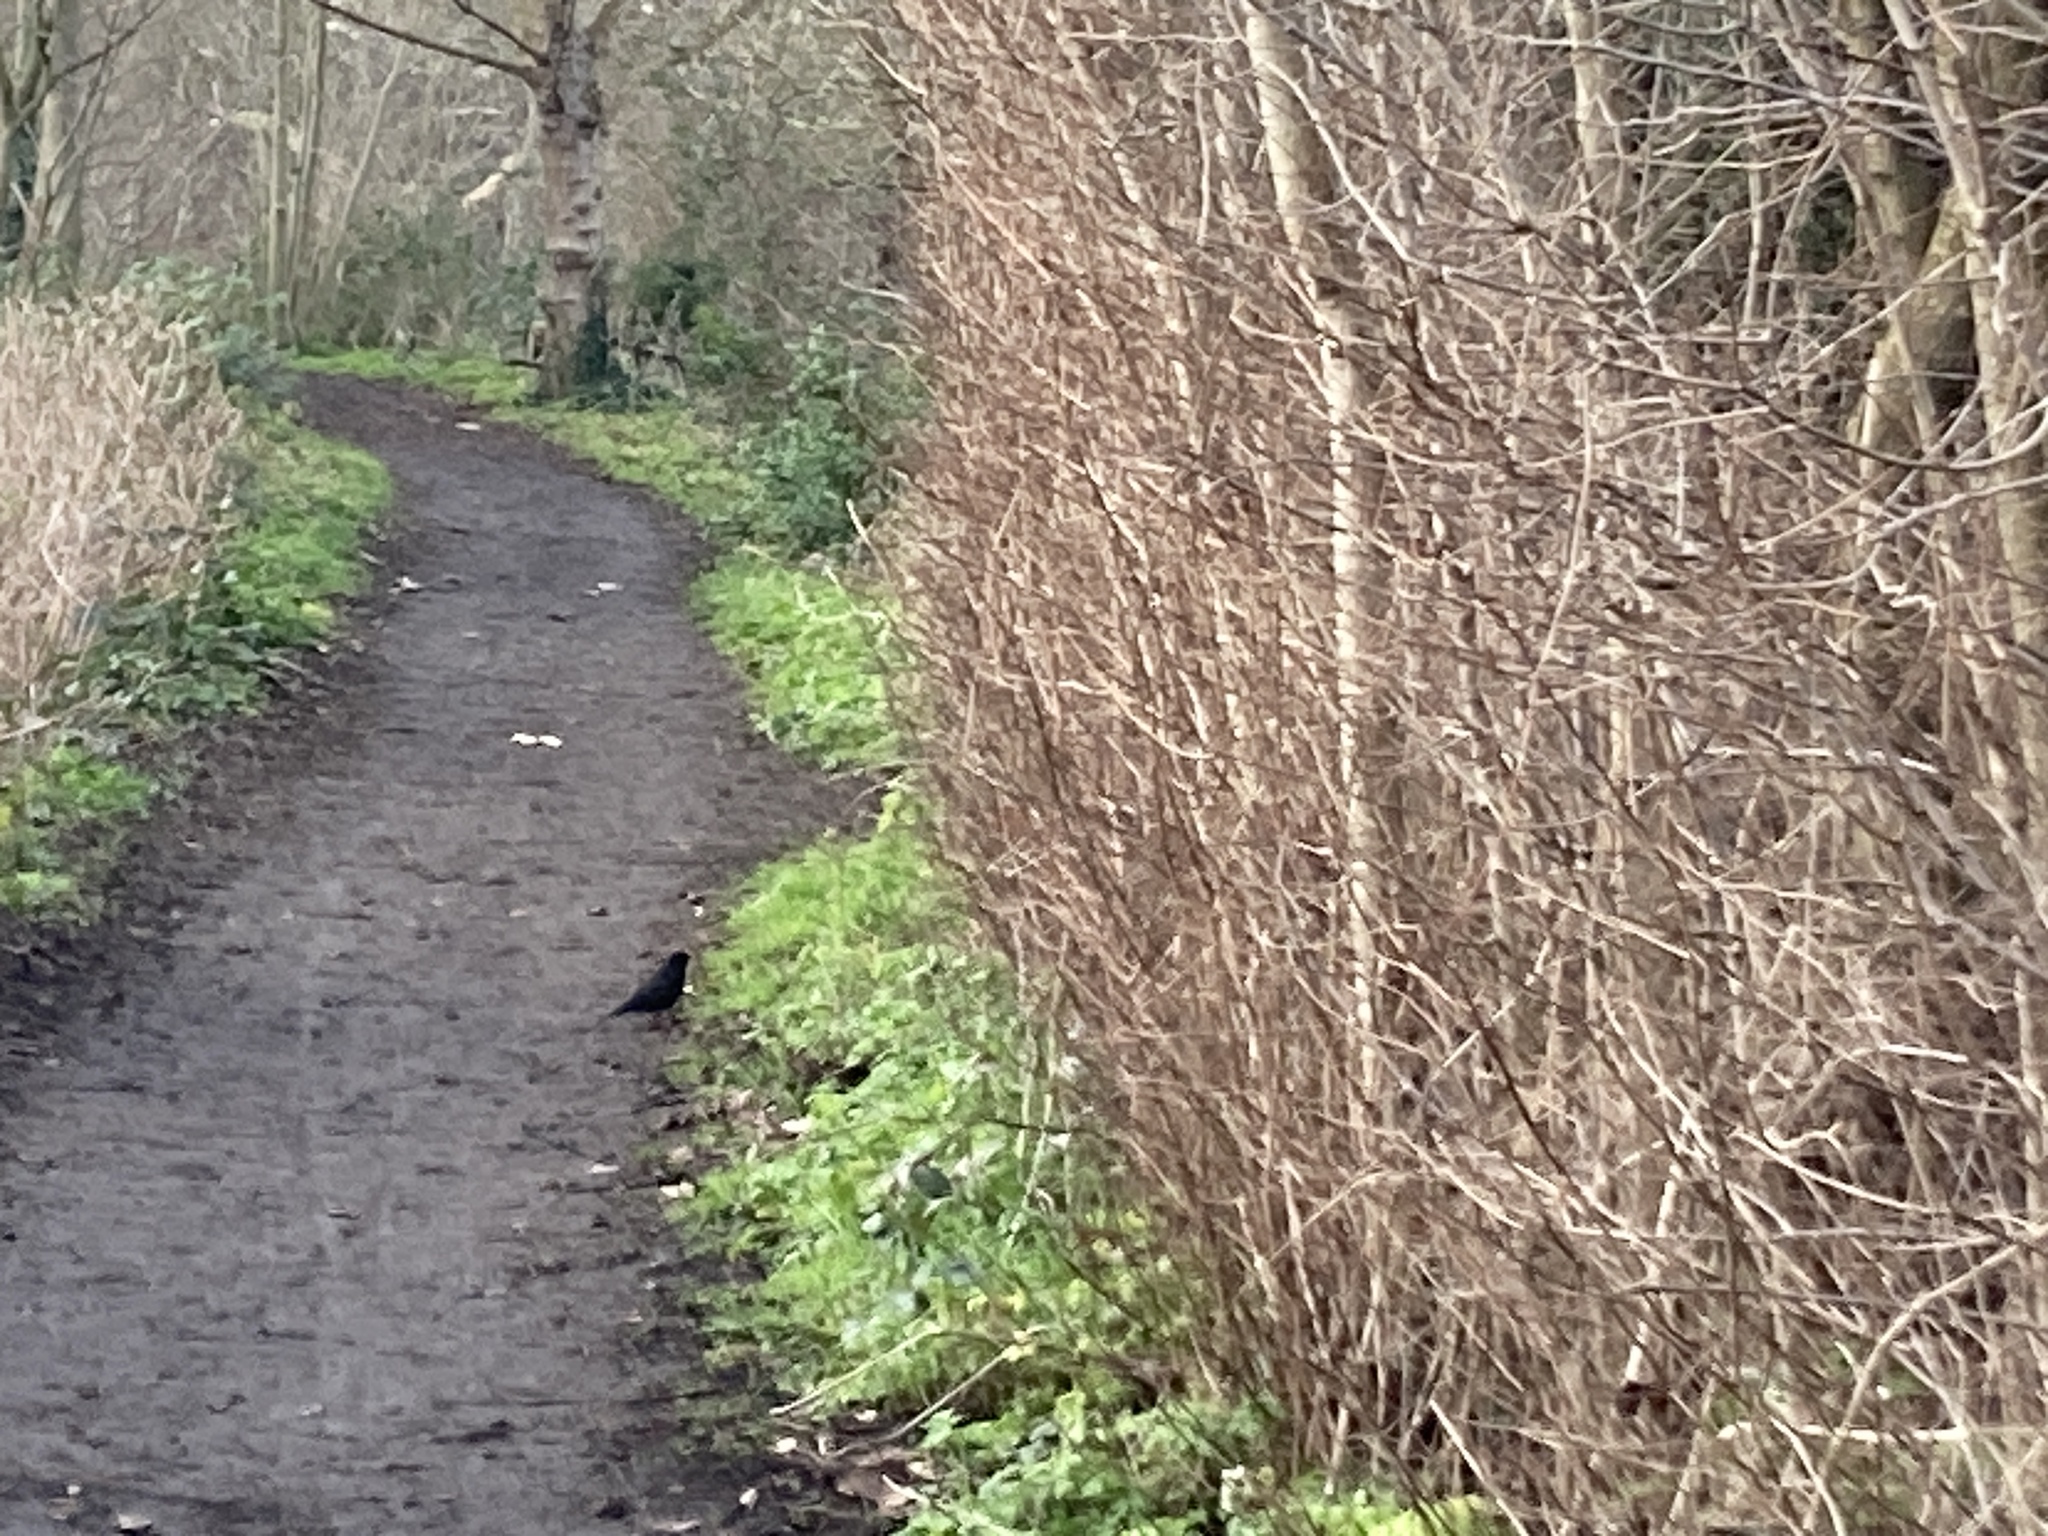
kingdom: Animalia
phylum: Chordata
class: Aves
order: Passeriformes
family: Turdidae
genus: Turdus
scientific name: Turdus merula
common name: Common blackbird
